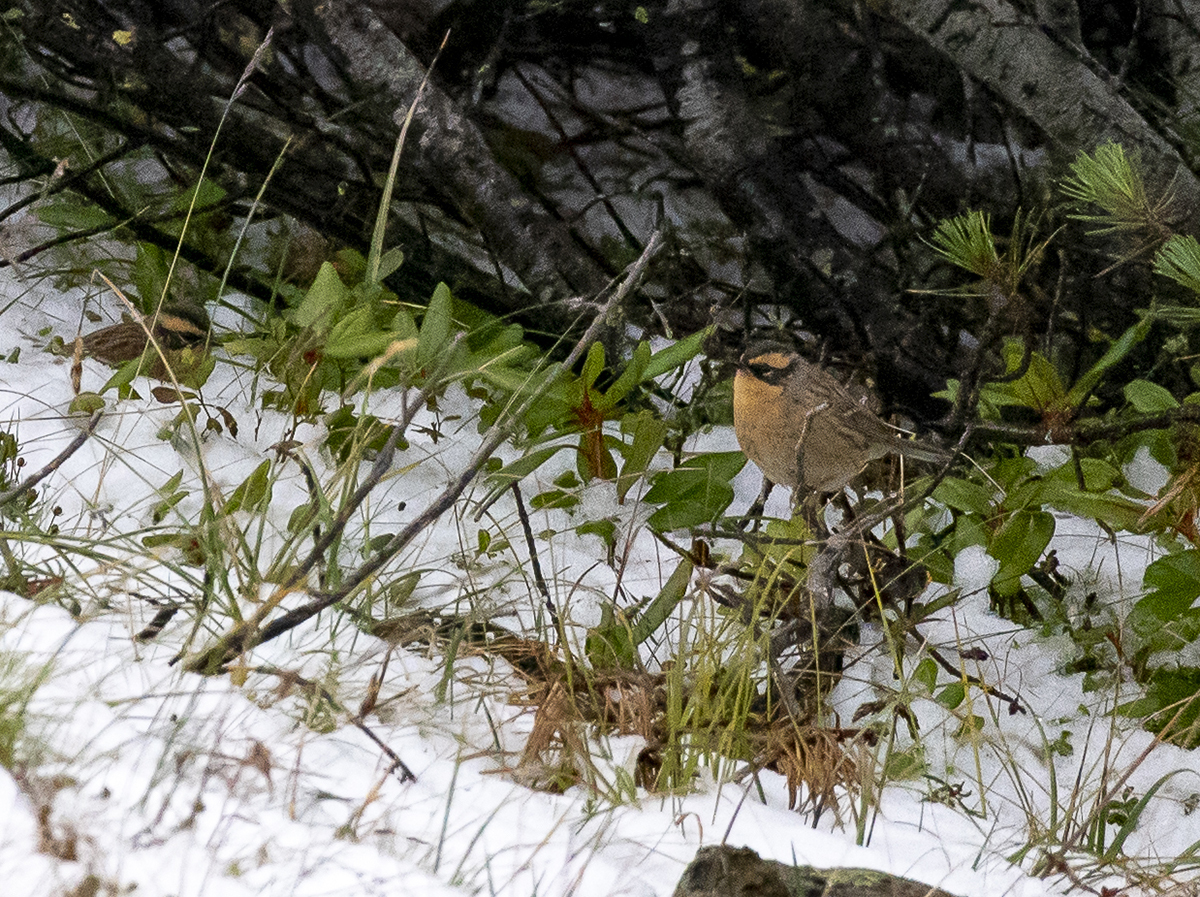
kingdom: Animalia
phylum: Chordata
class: Aves
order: Passeriformes
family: Prunellidae
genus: Prunella
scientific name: Prunella montanella
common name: Siberian accentor
